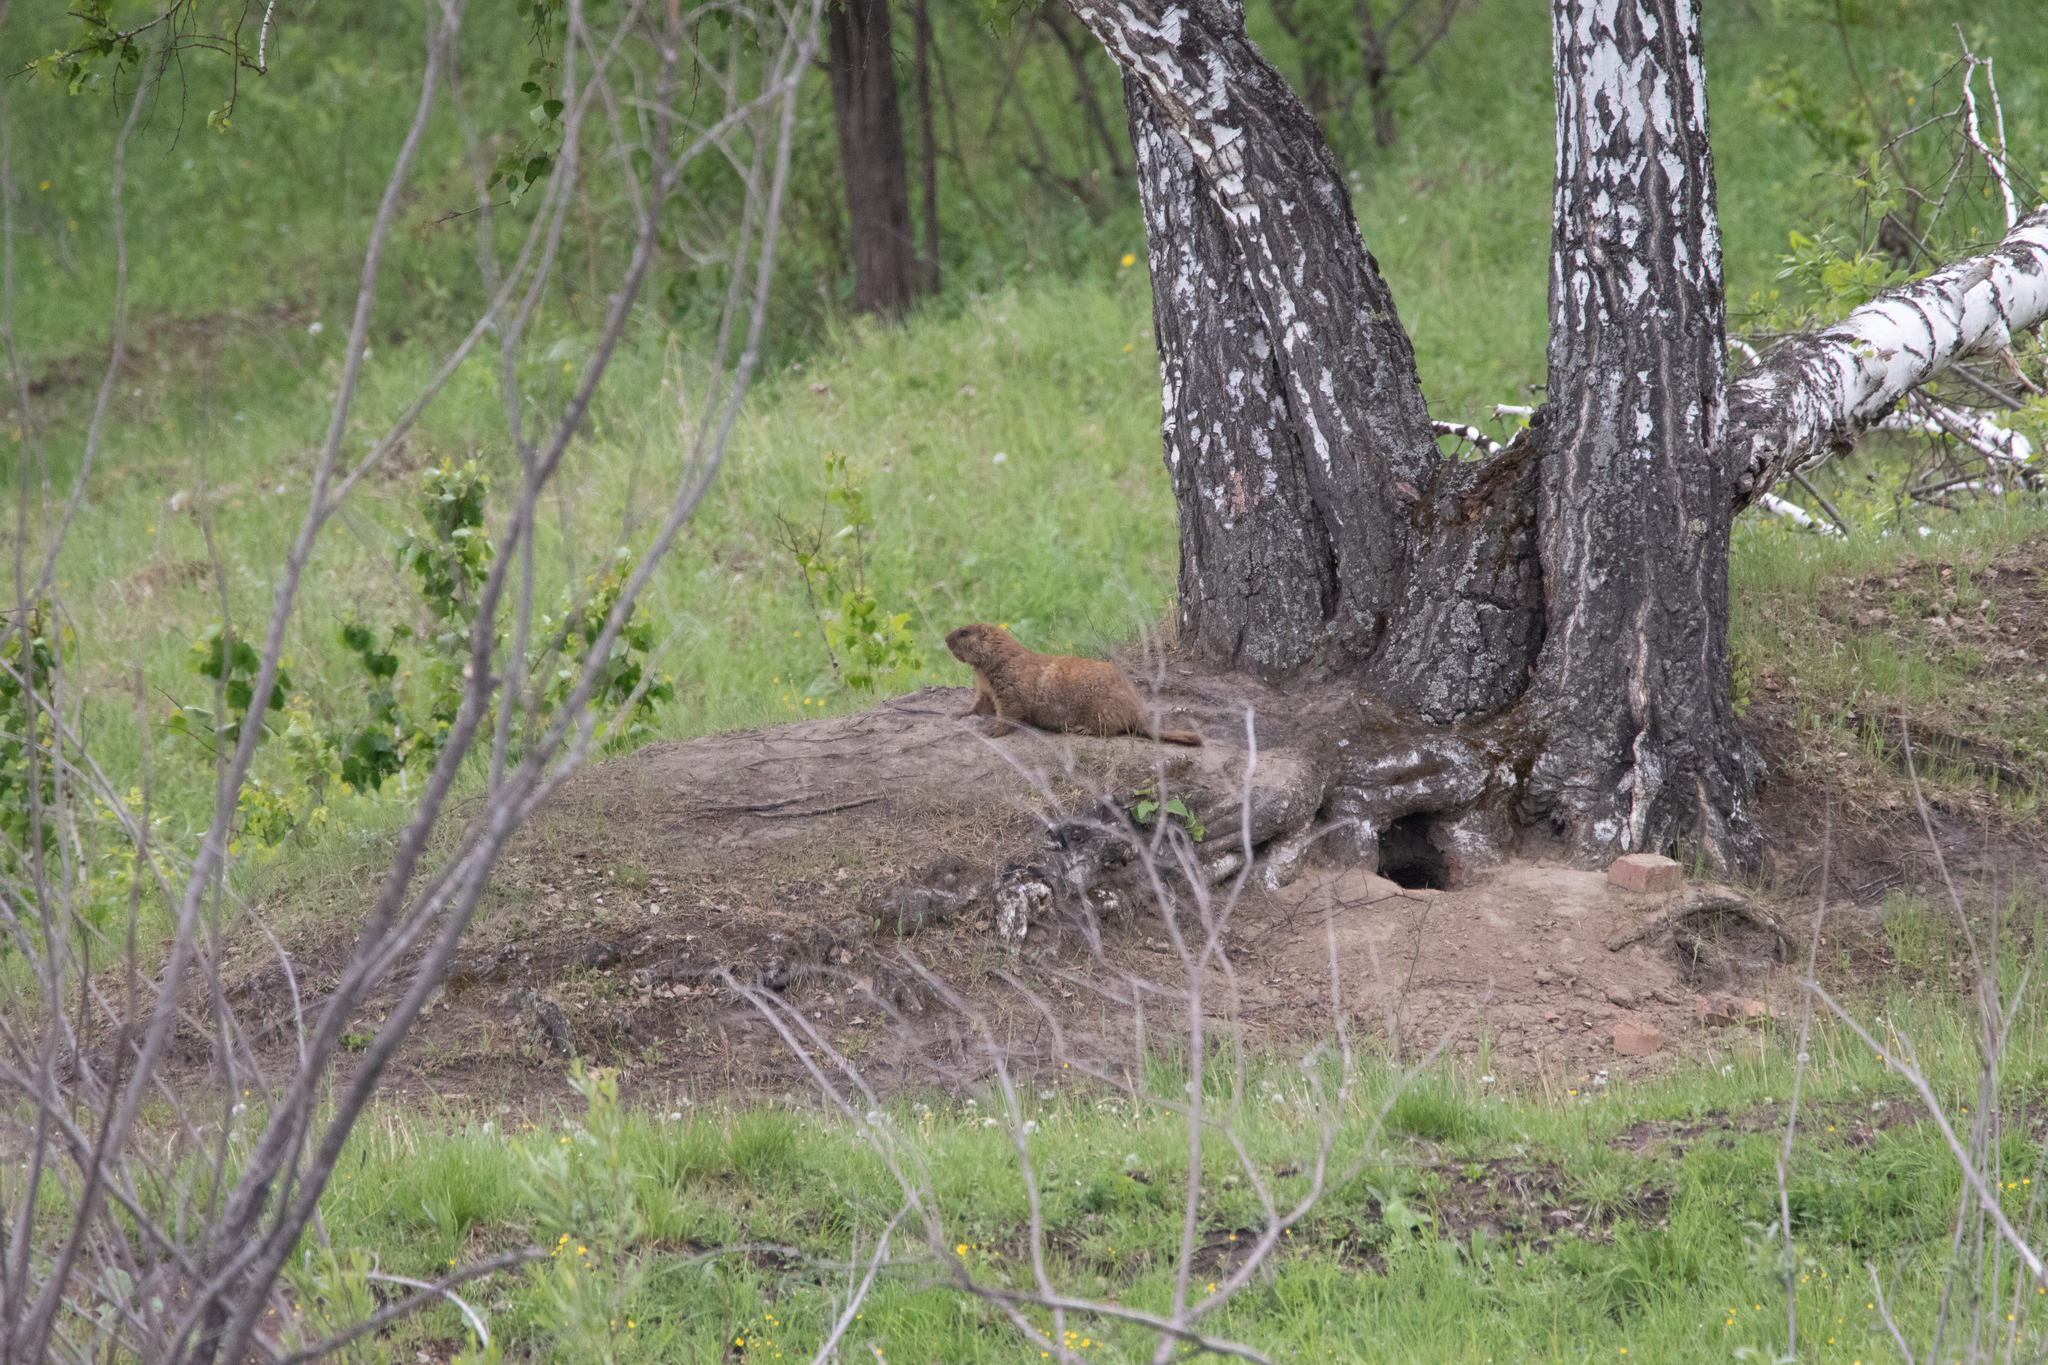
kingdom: Animalia
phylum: Chordata
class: Mammalia
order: Rodentia
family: Sciuridae
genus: Marmota
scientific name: Marmota kastschenkoi
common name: Forest steppe marmot
